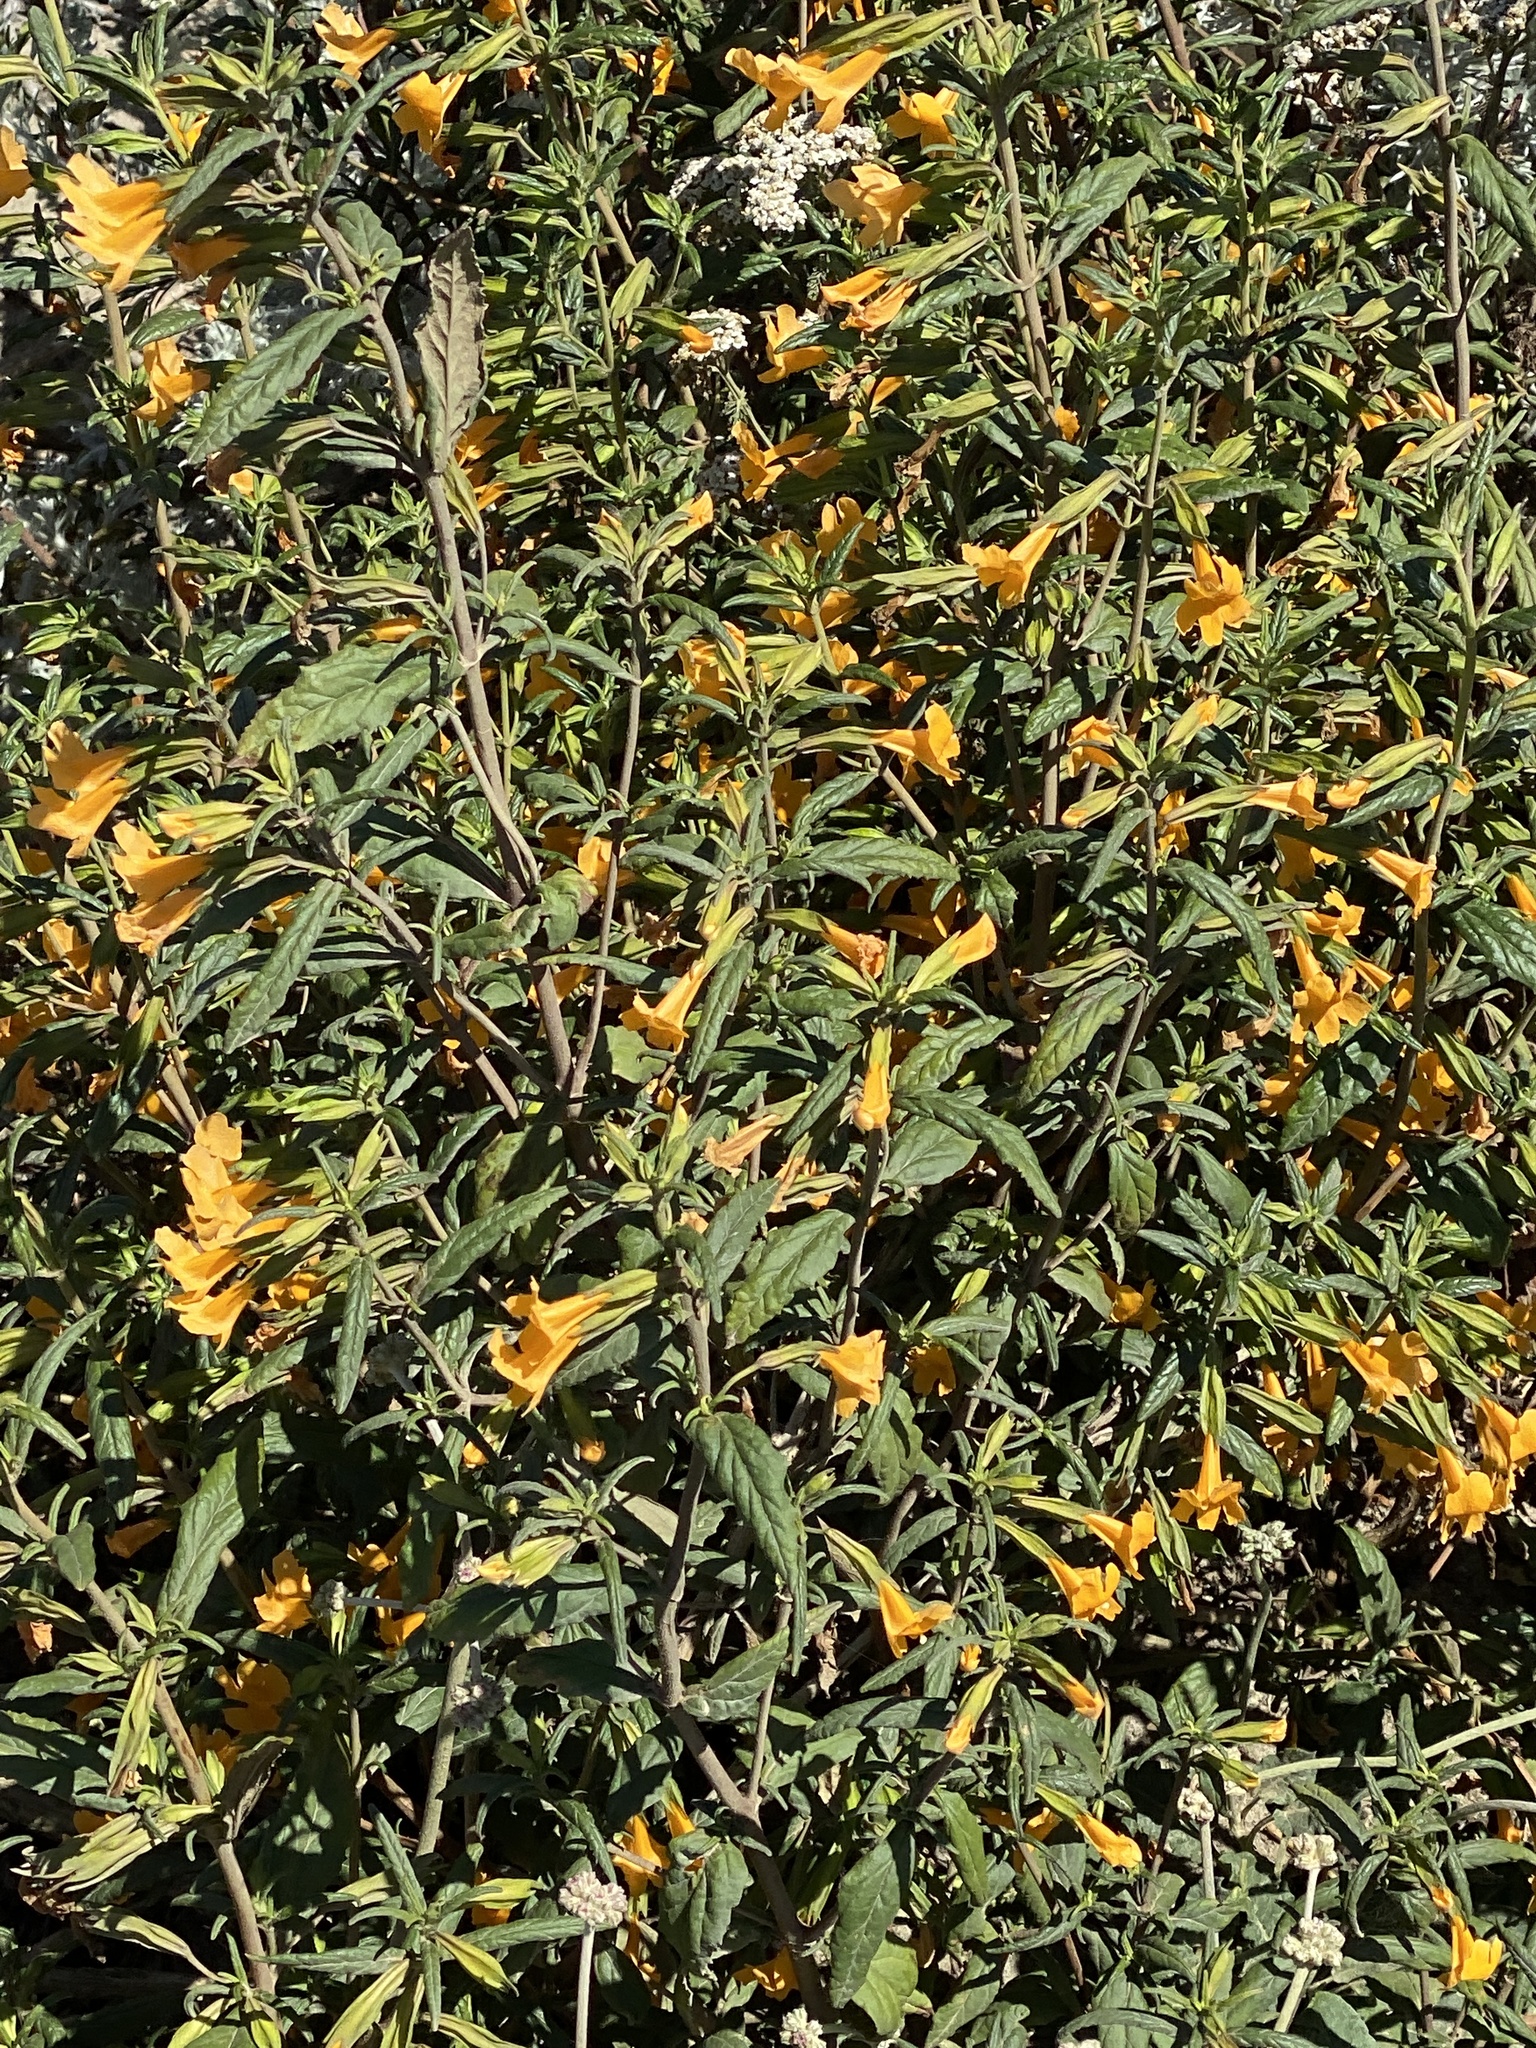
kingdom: Plantae
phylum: Tracheophyta
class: Magnoliopsida
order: Lamiales
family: Phrymaceae
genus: Diplacus
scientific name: Diplacus aurantiacus
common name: Bush monkey-flower
